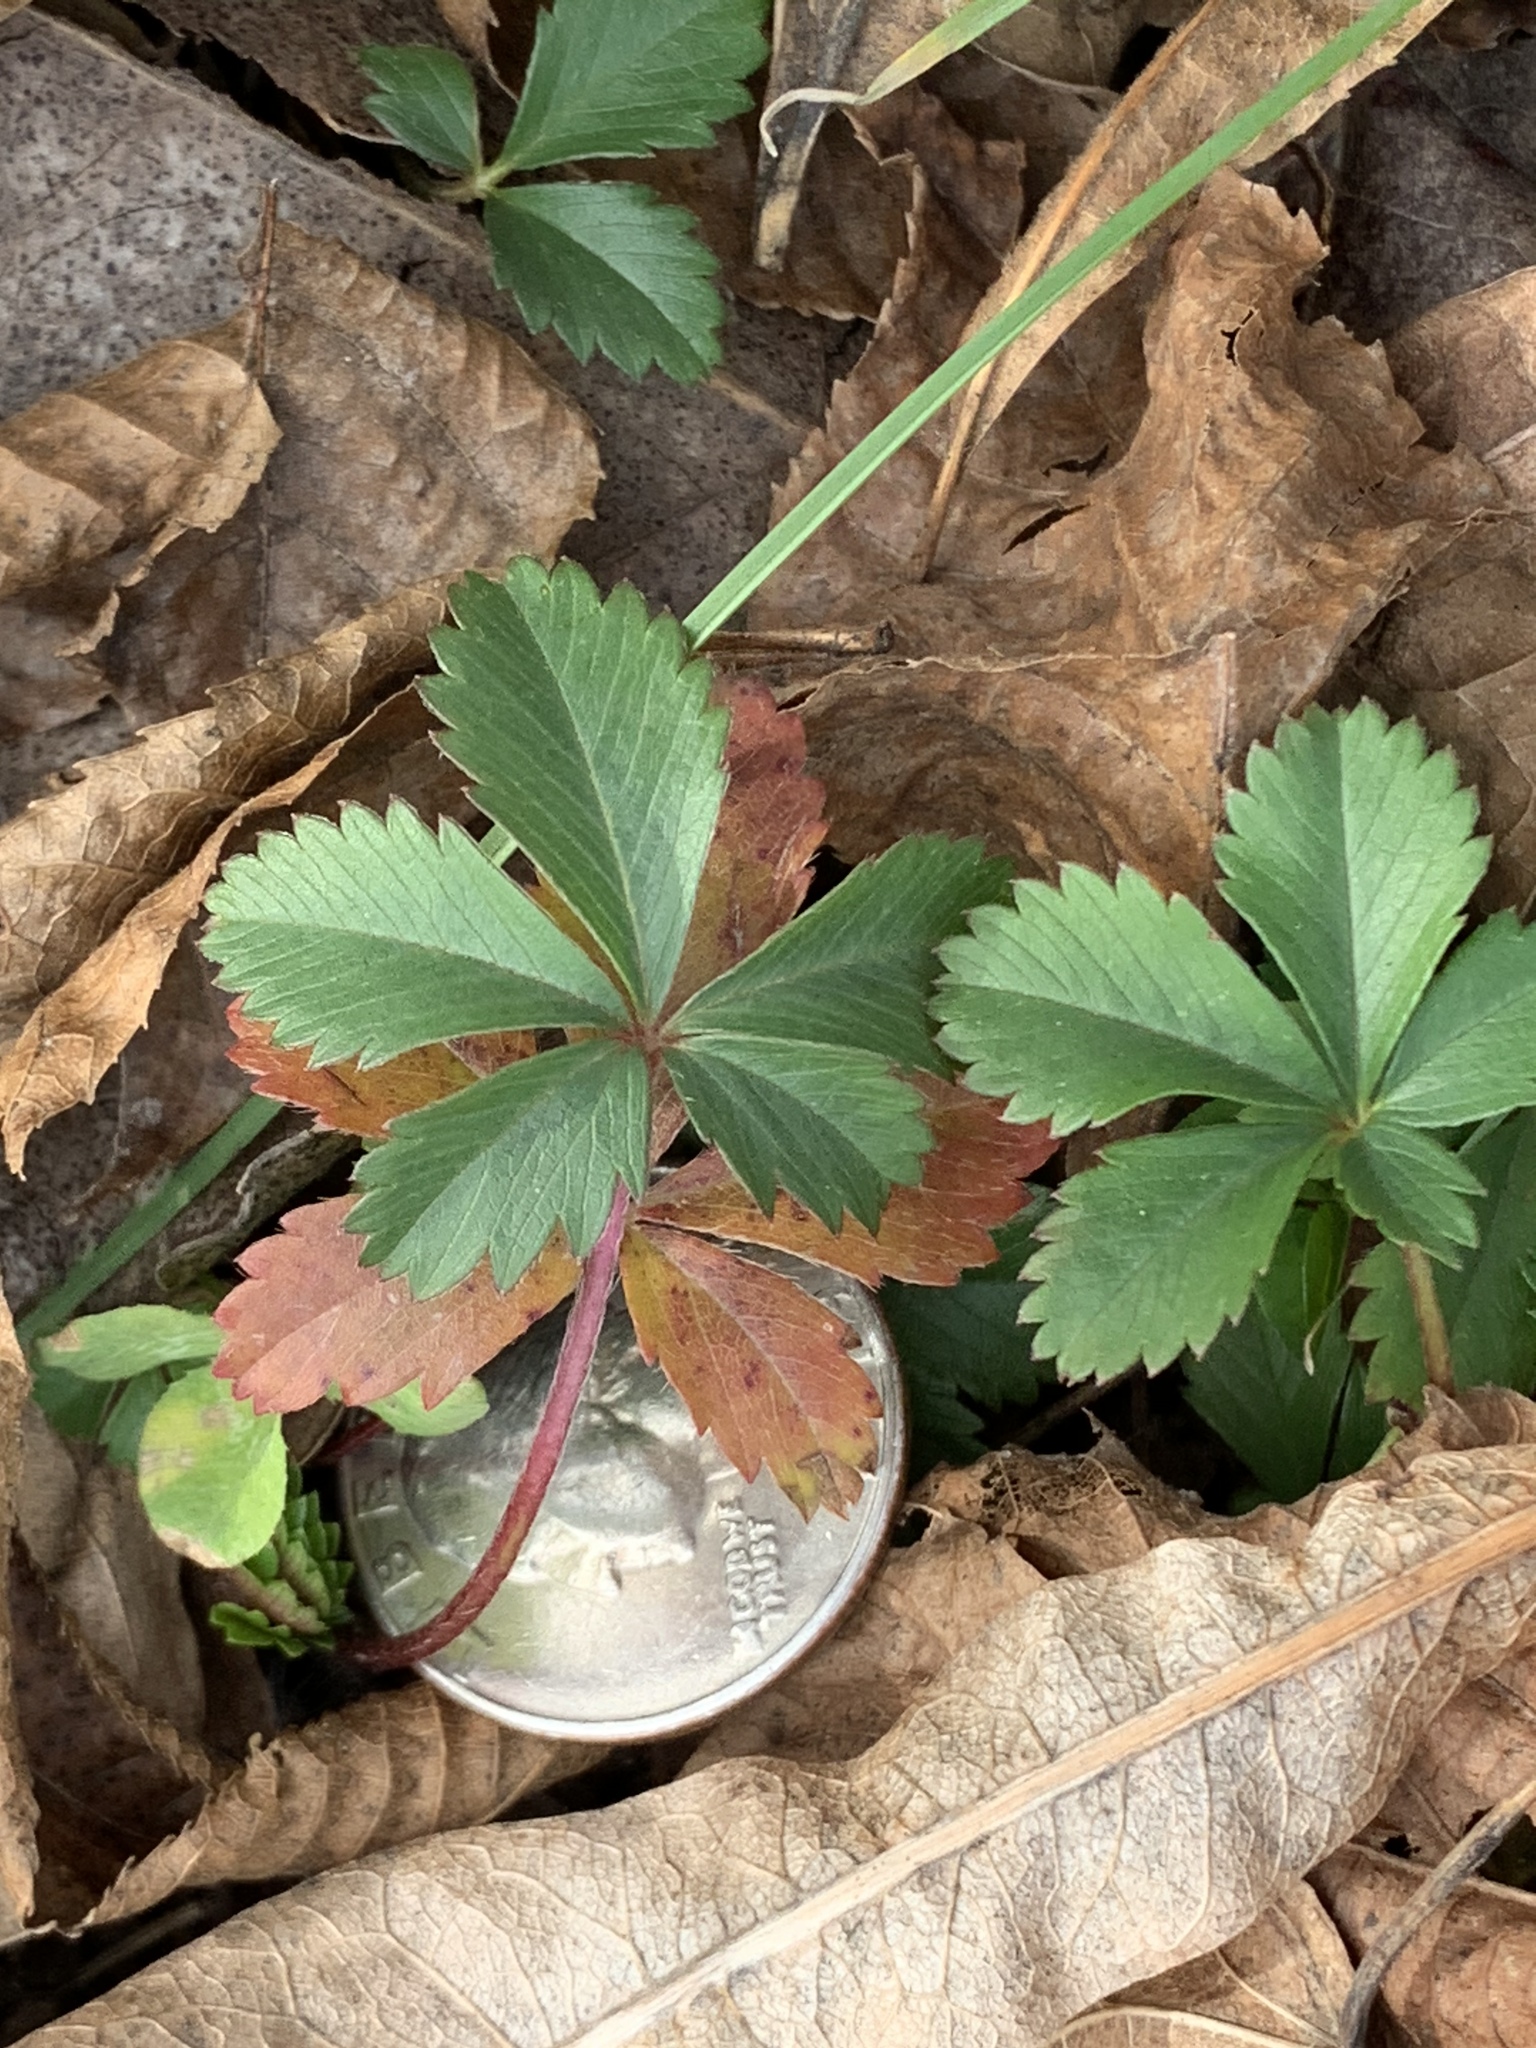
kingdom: Plantae
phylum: Tracheophyta
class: Magnoliopsida
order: Rosales
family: Rosaceae
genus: Potentilla
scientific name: Potentilla canadensis
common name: Canada cinquefoil
